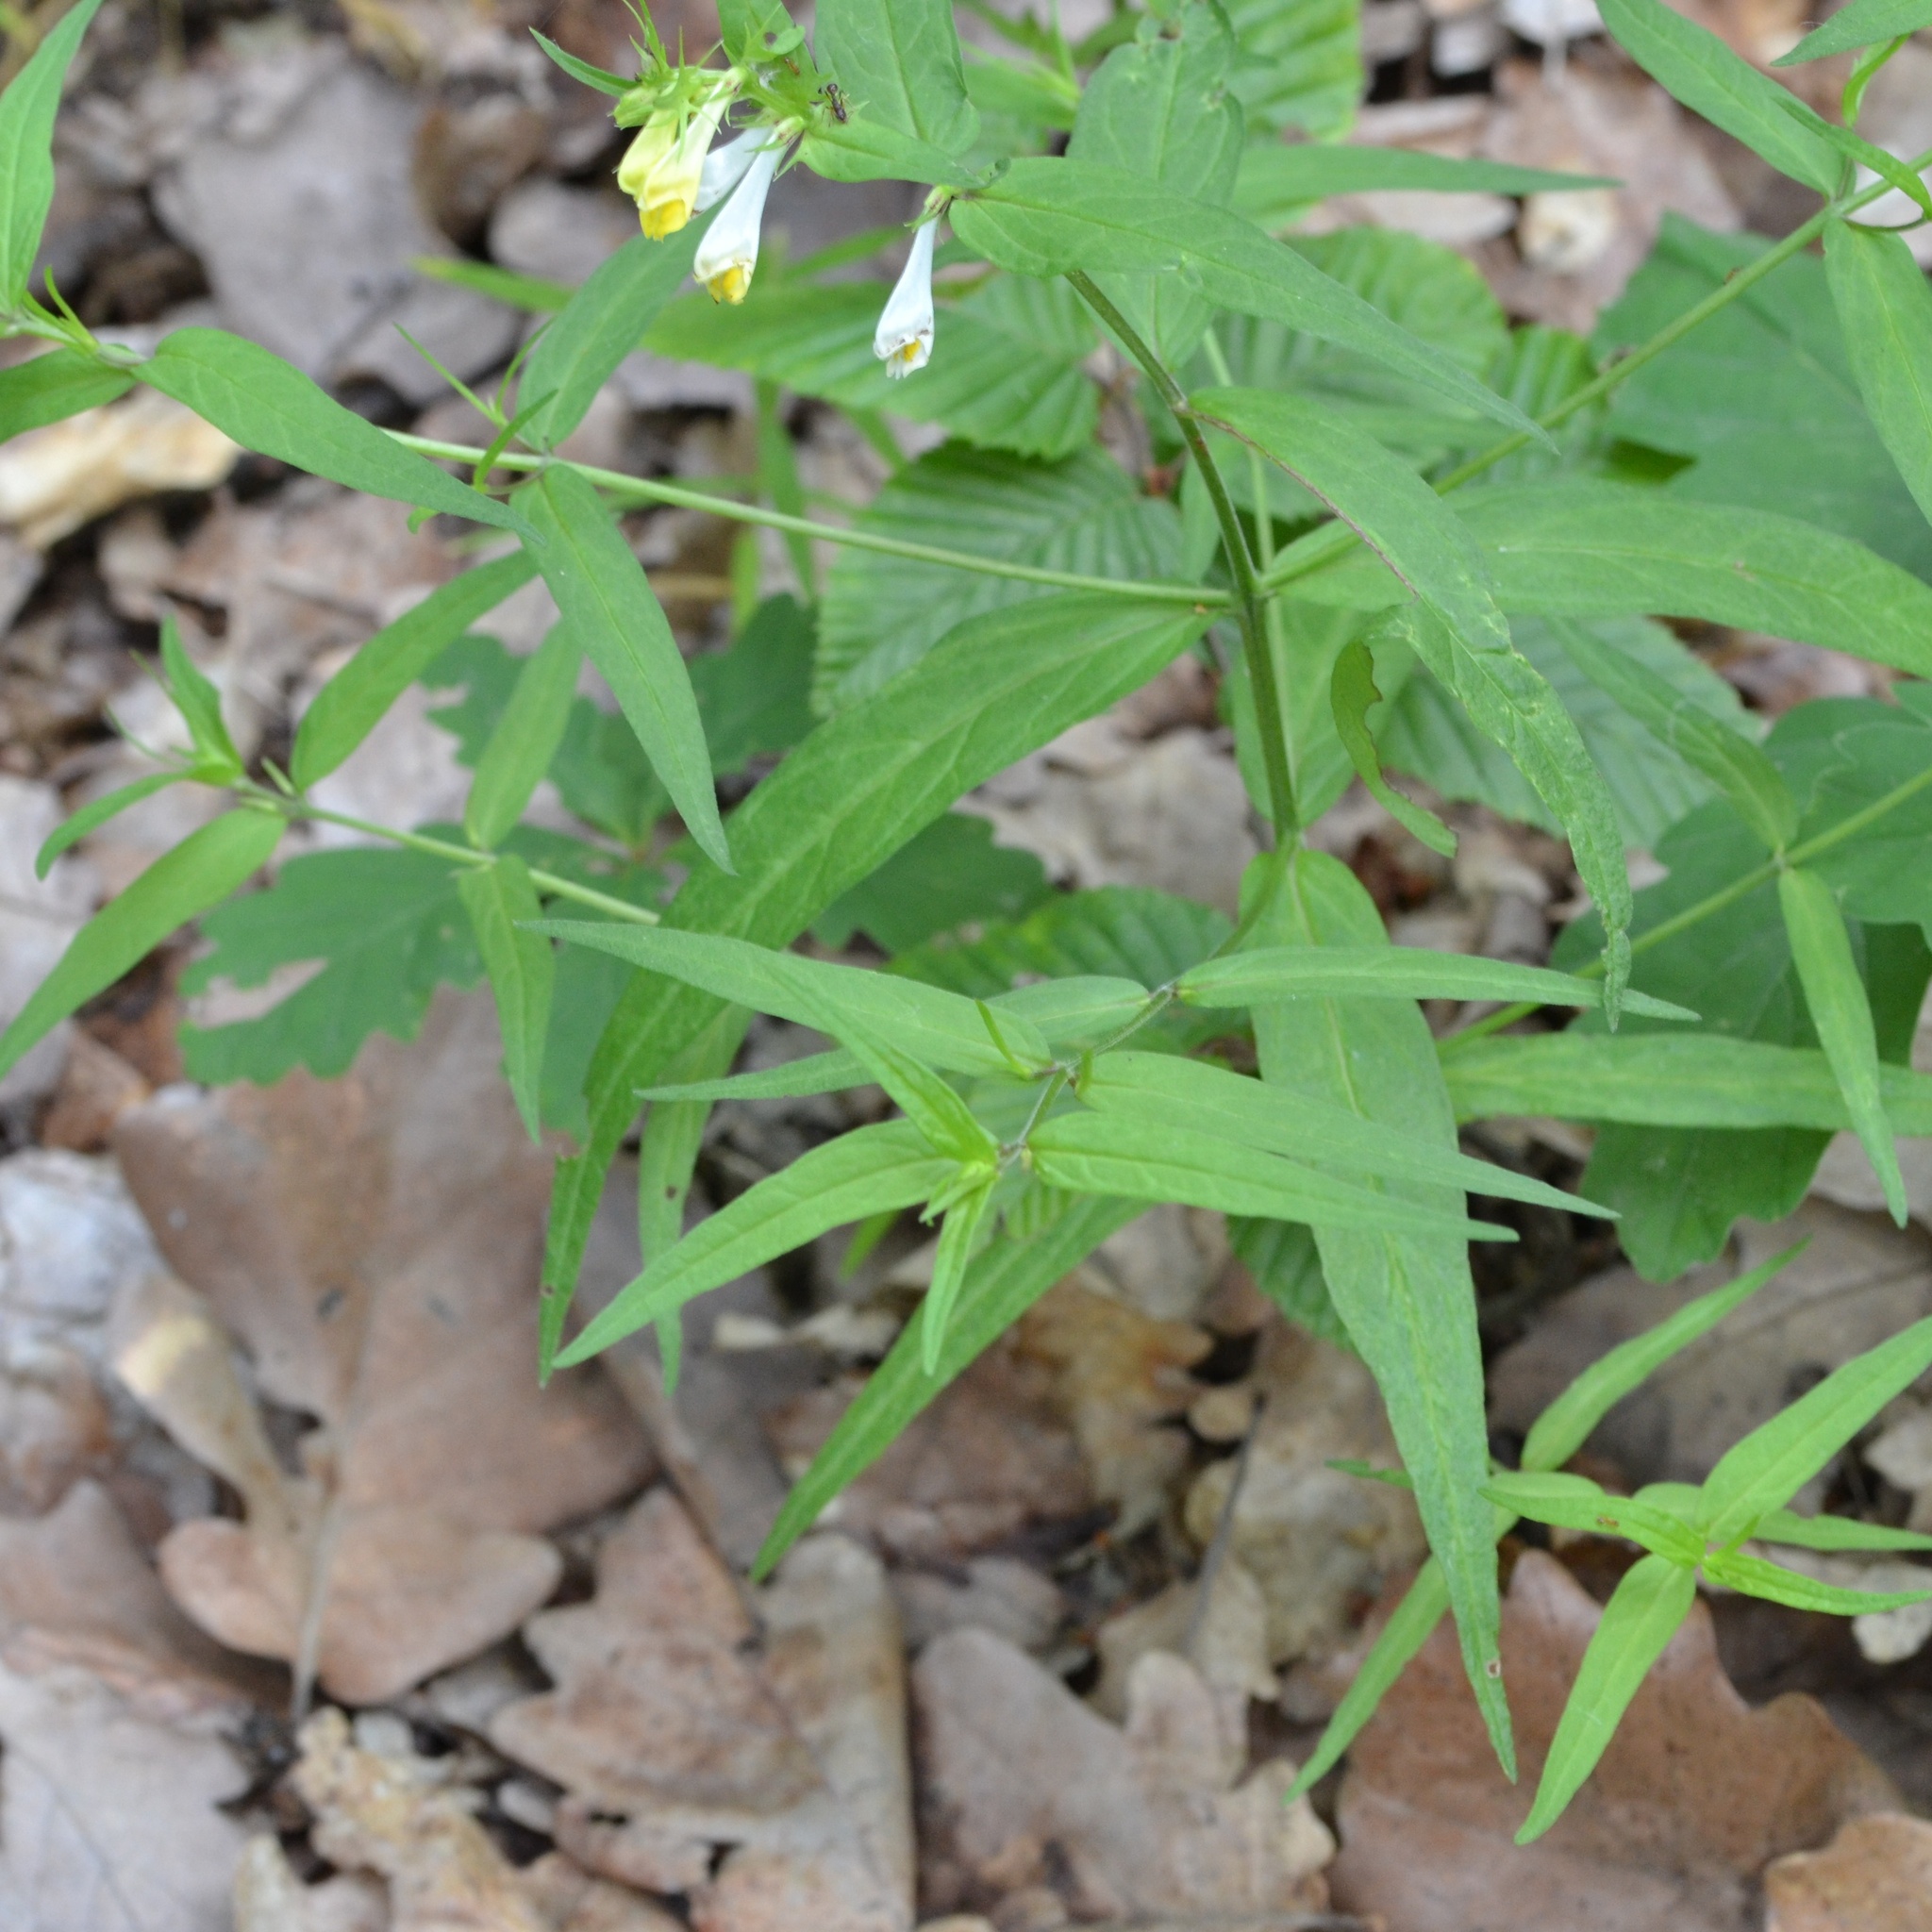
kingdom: Plantae
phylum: Tracheophyta
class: Magnoliopsida
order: Lamiales
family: Orobanchaceae
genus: Melampyrum
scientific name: Melampyrum pratense
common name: Common cow-wheat
